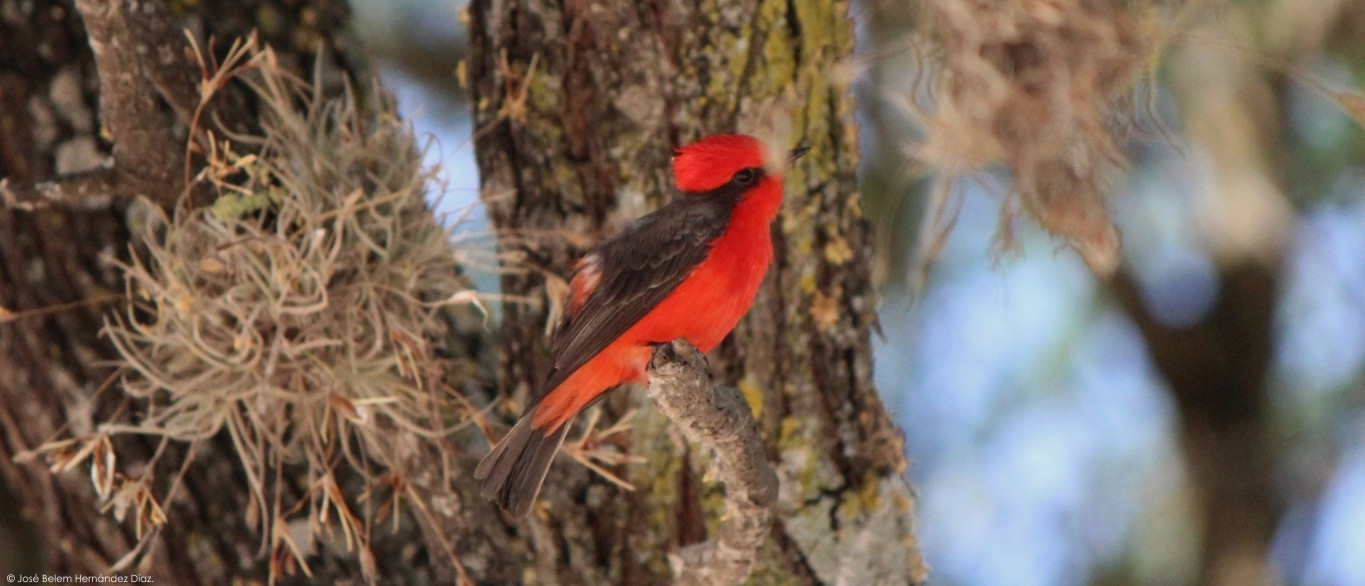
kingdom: Animalia
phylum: Chordata
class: Aves
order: Passeriformes
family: Tyrannidae
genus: Pyrocephalus
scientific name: Pyrocephalus rubinus
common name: Vermilion flycatcher
